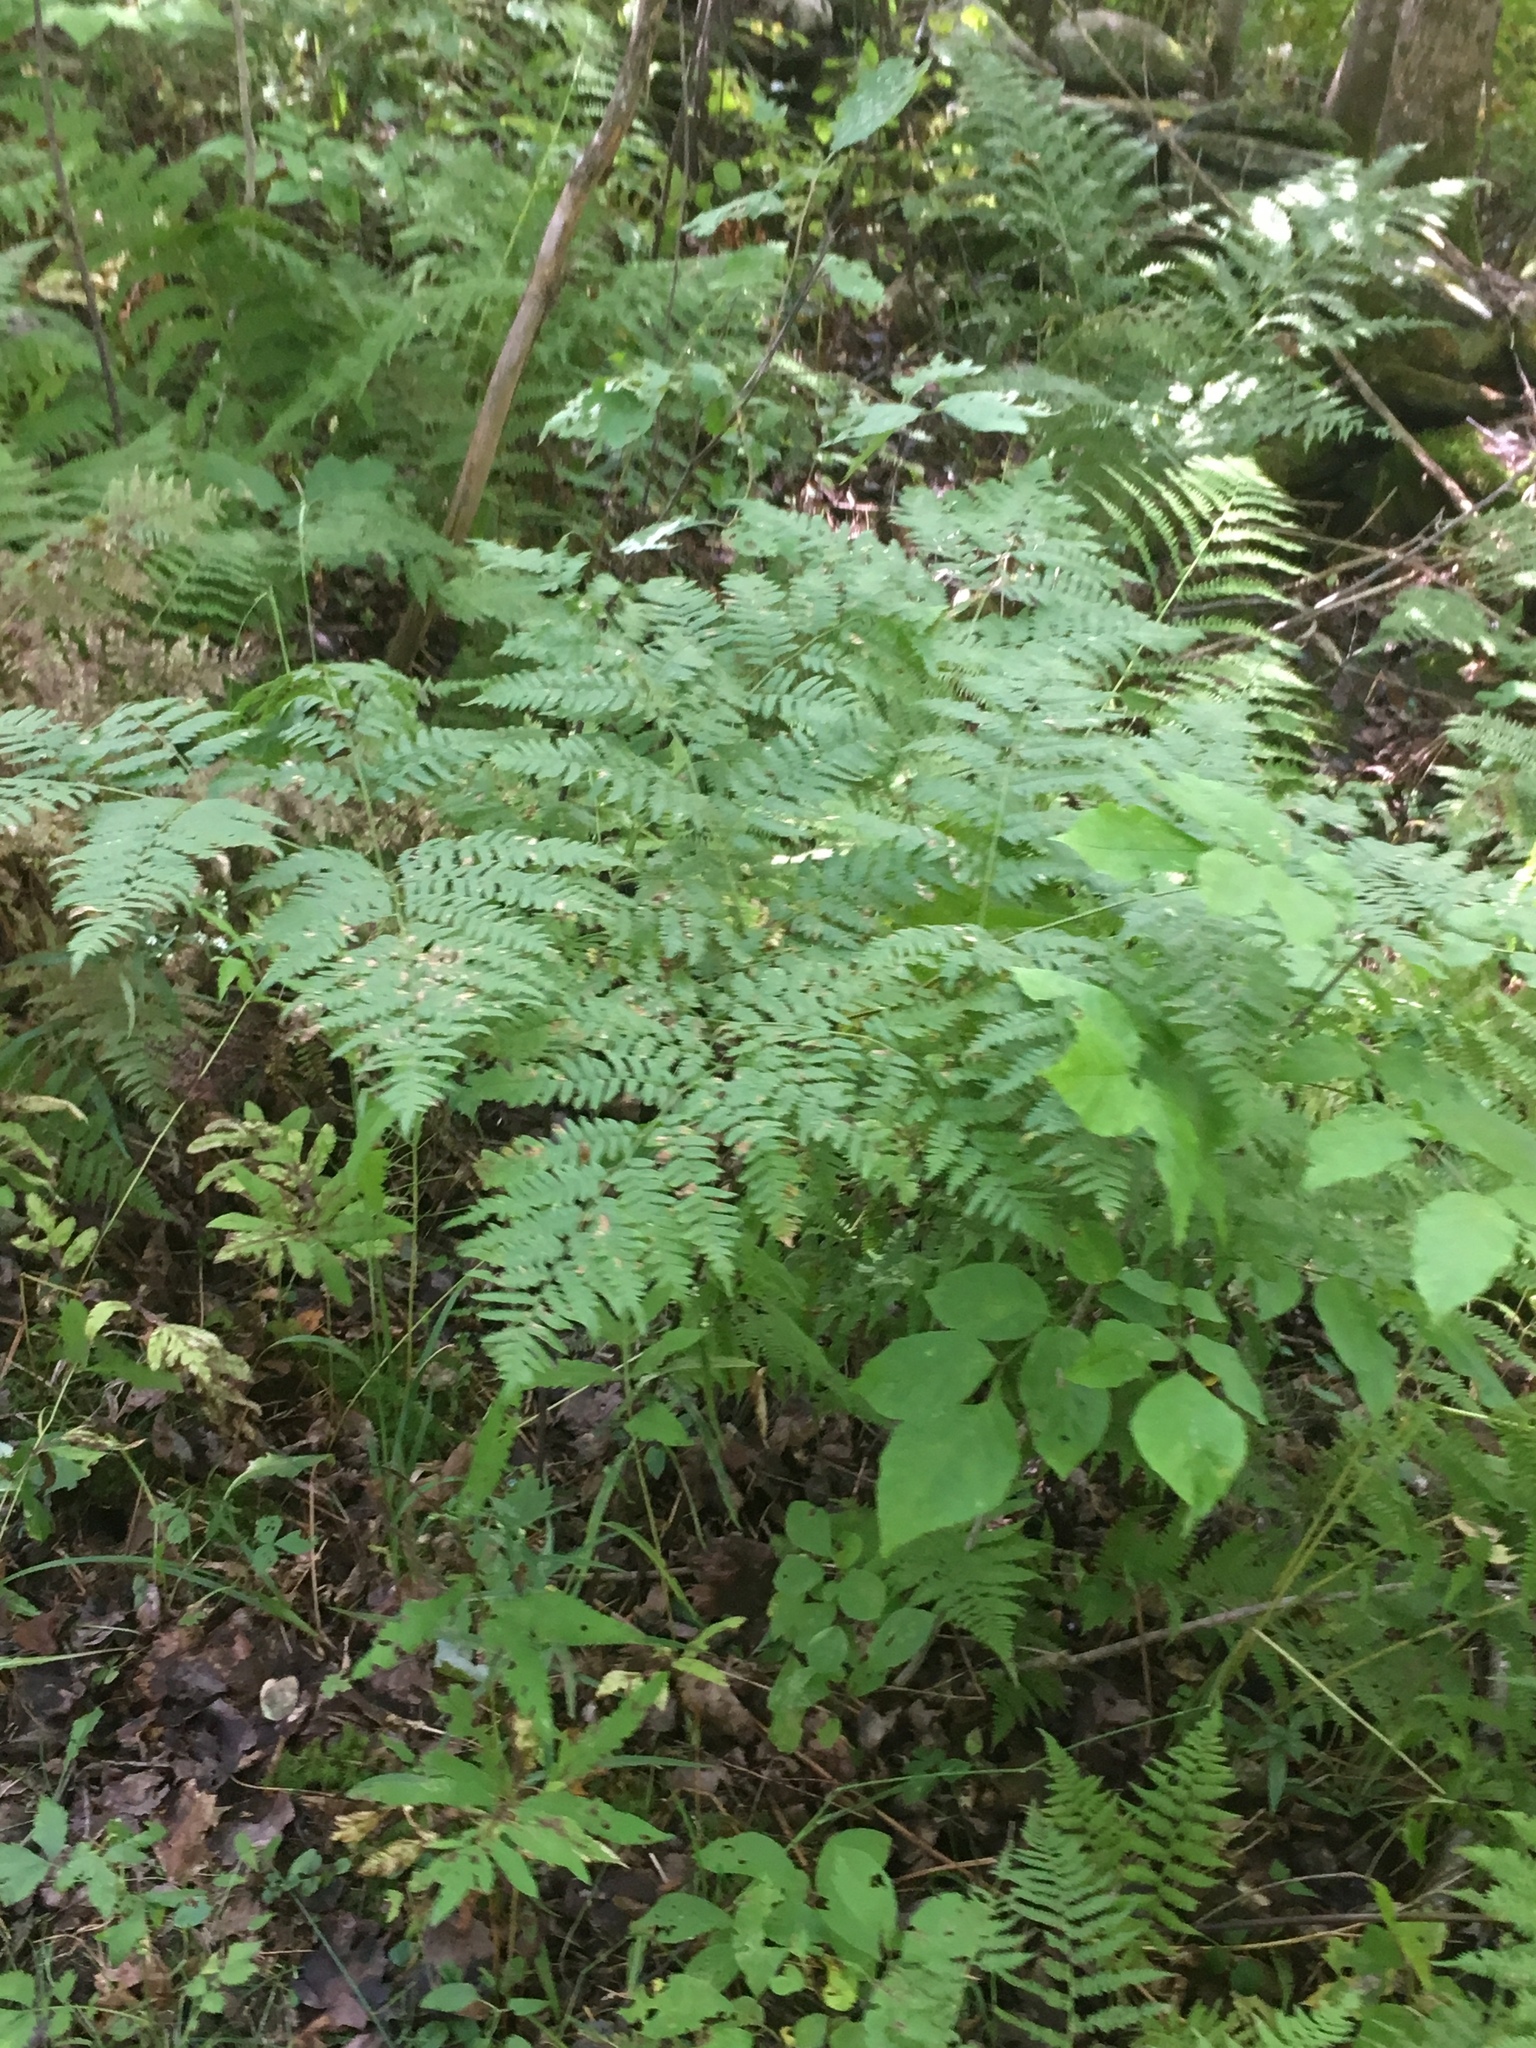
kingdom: Plantae
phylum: Tracheophyta
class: Polypodiopsida
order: Polypodiales
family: Dennstaedtiaceae
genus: Pteridium
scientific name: Pteridium aquilinum
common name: Bracken
